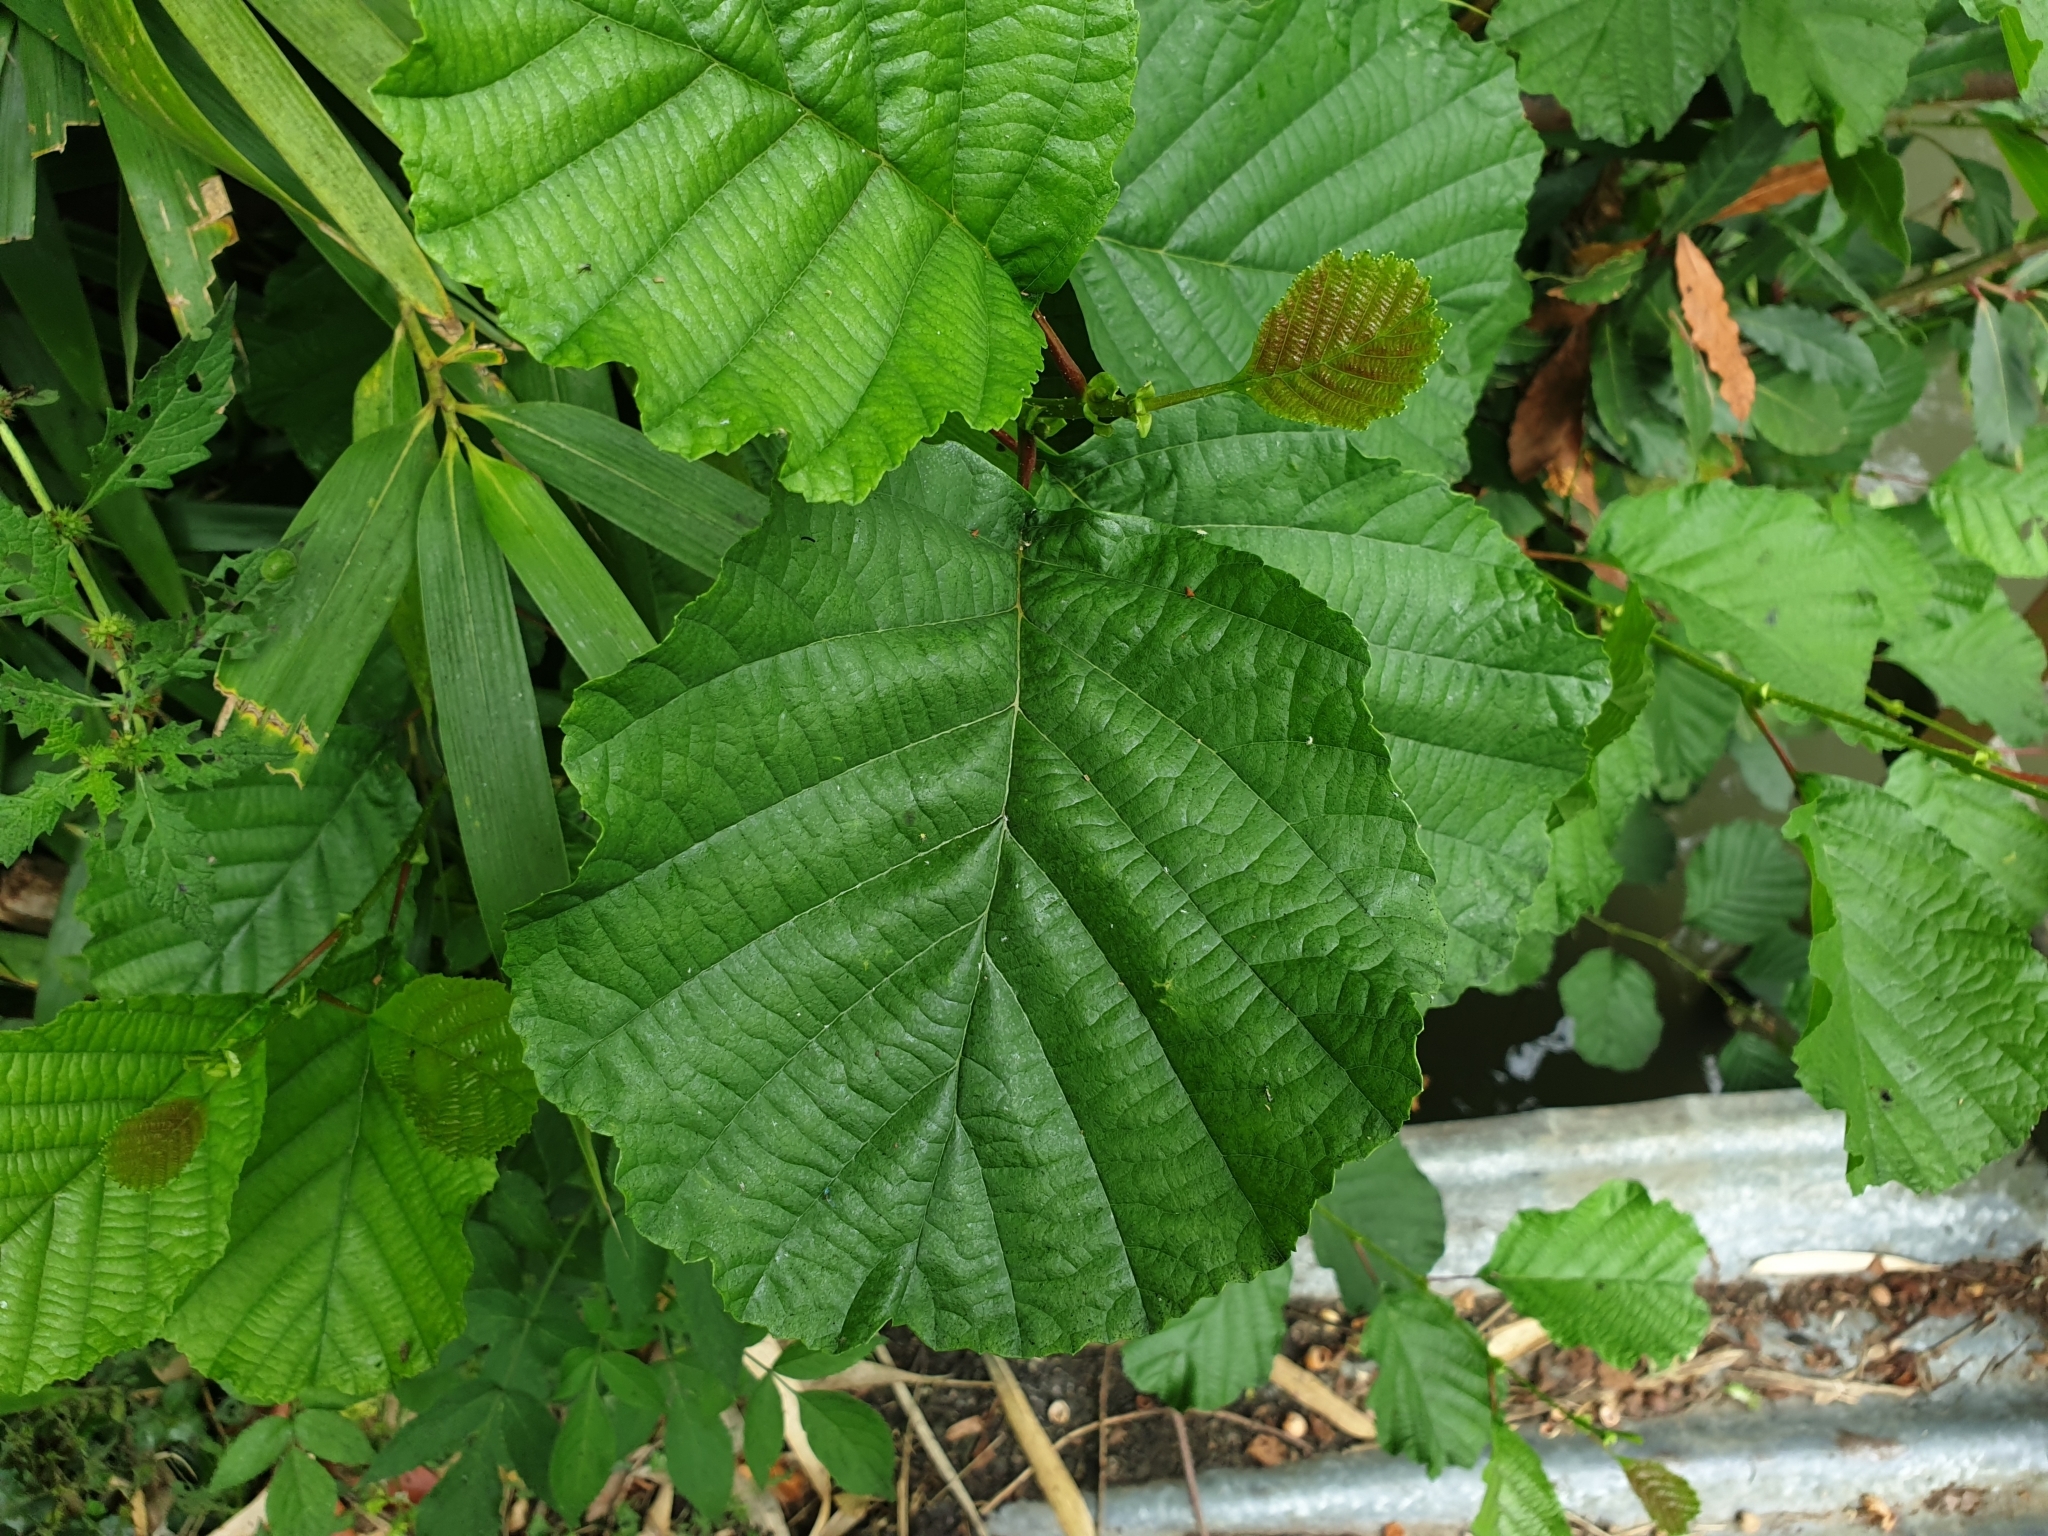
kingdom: Plantae
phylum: Tracheophyta
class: Magnoliopsida
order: Fagales
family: Betulaceae
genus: Alnus
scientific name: Alnus glutinosa
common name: Black alder
